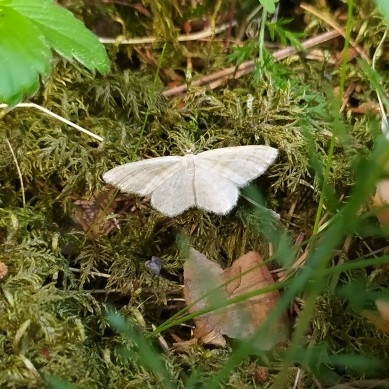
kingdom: Animalia
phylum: Arthropoda
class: Insecta
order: Lepidoptera
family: Geometridae
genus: Scopula
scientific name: Scopula ternata
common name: Smoky wave
